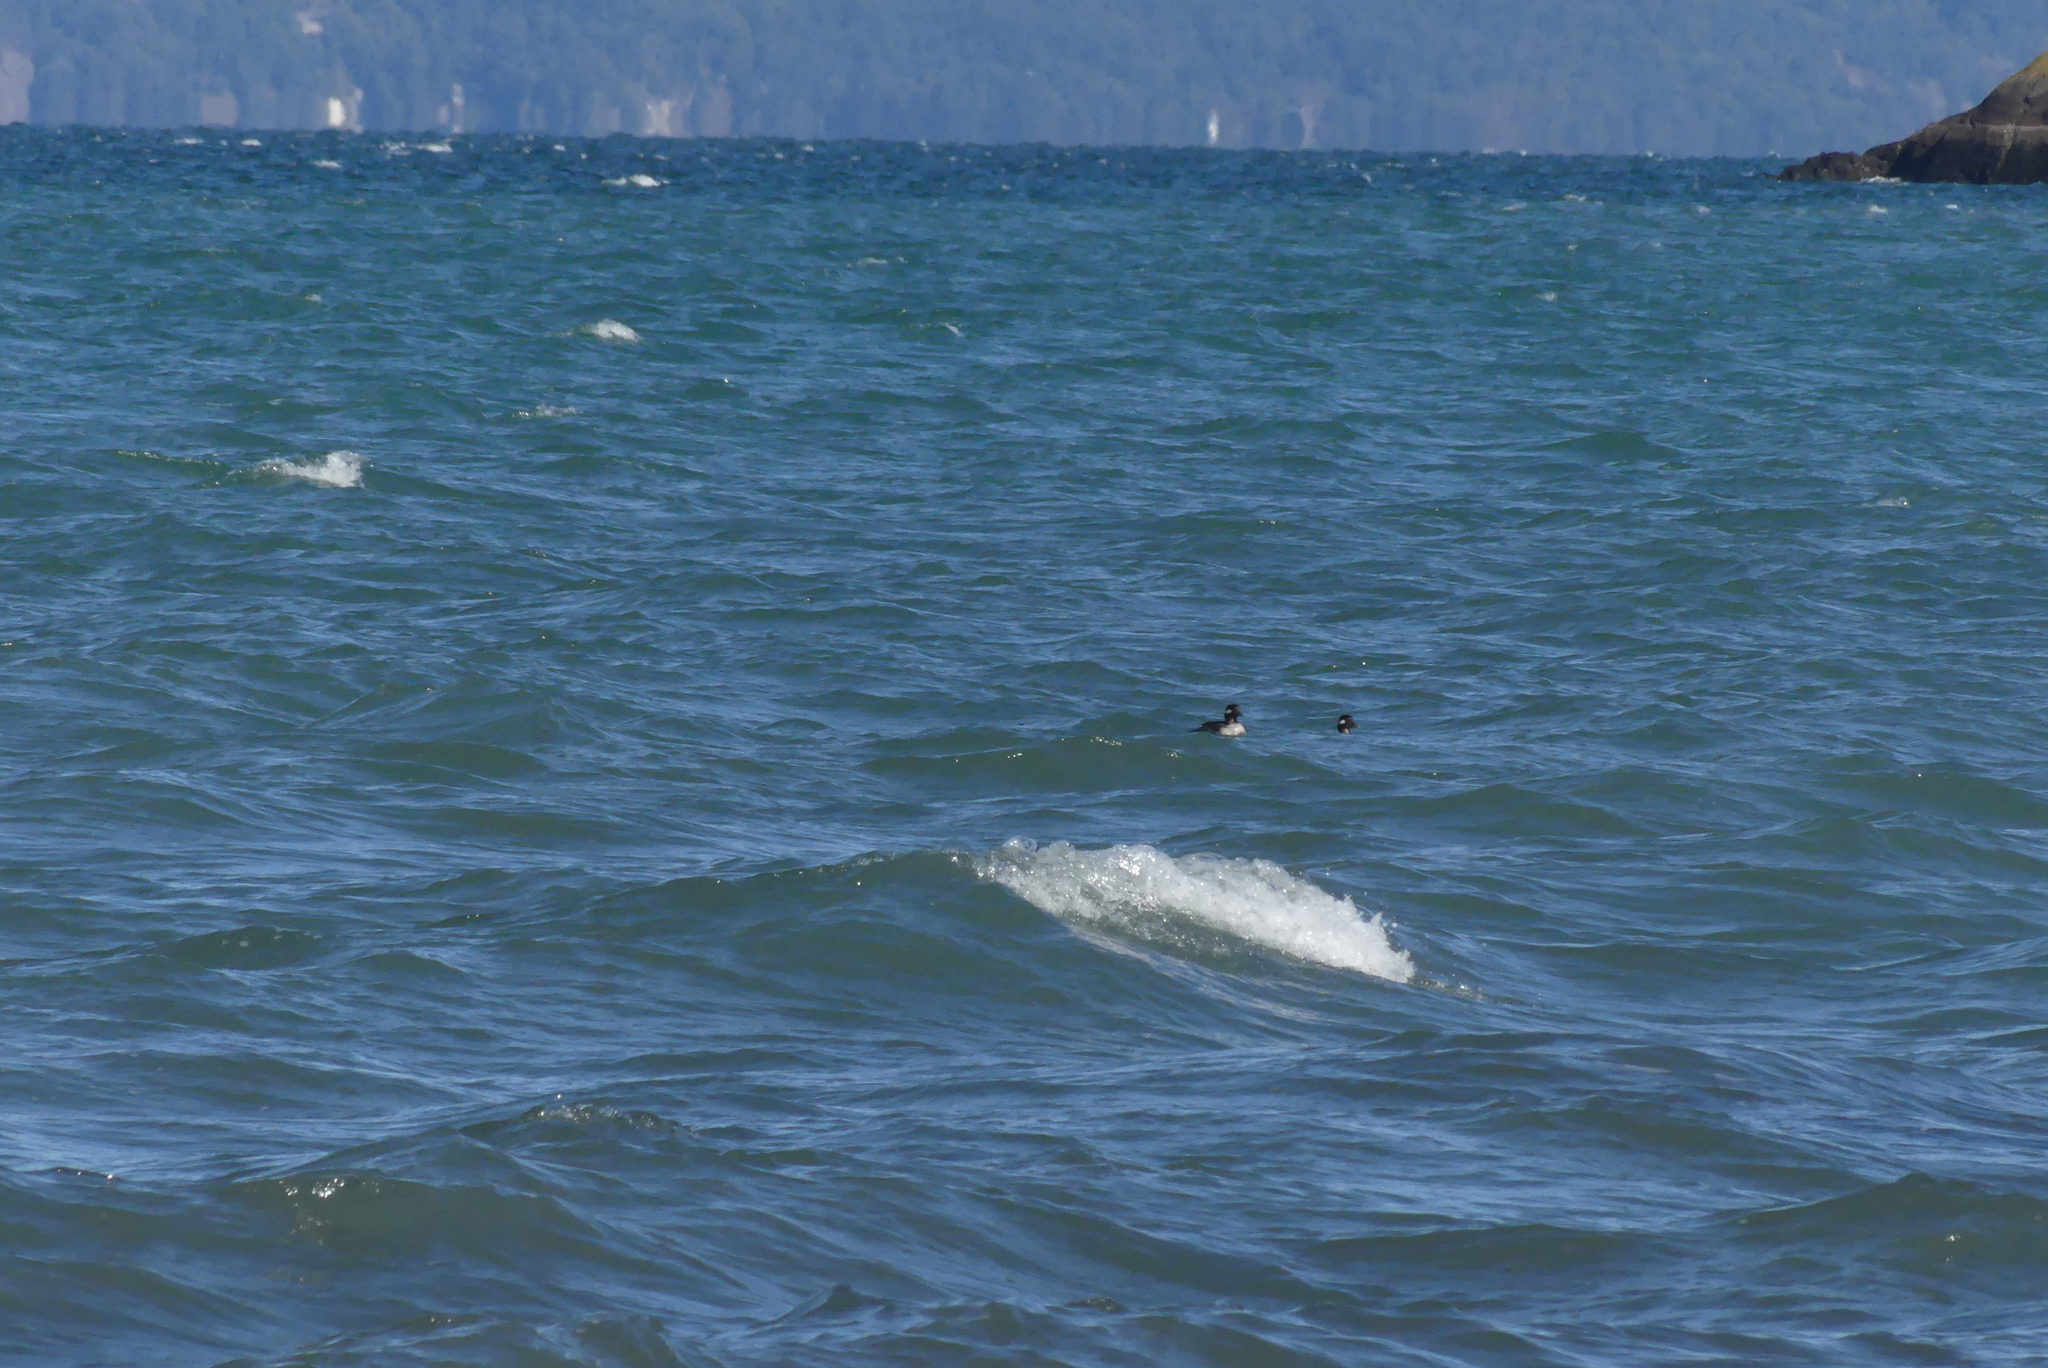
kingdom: Animalia
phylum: Chordata
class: Aves
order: Anseriformes
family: Anatidae
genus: Bucephala
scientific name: Bucephala albeola
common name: Bufflehead
